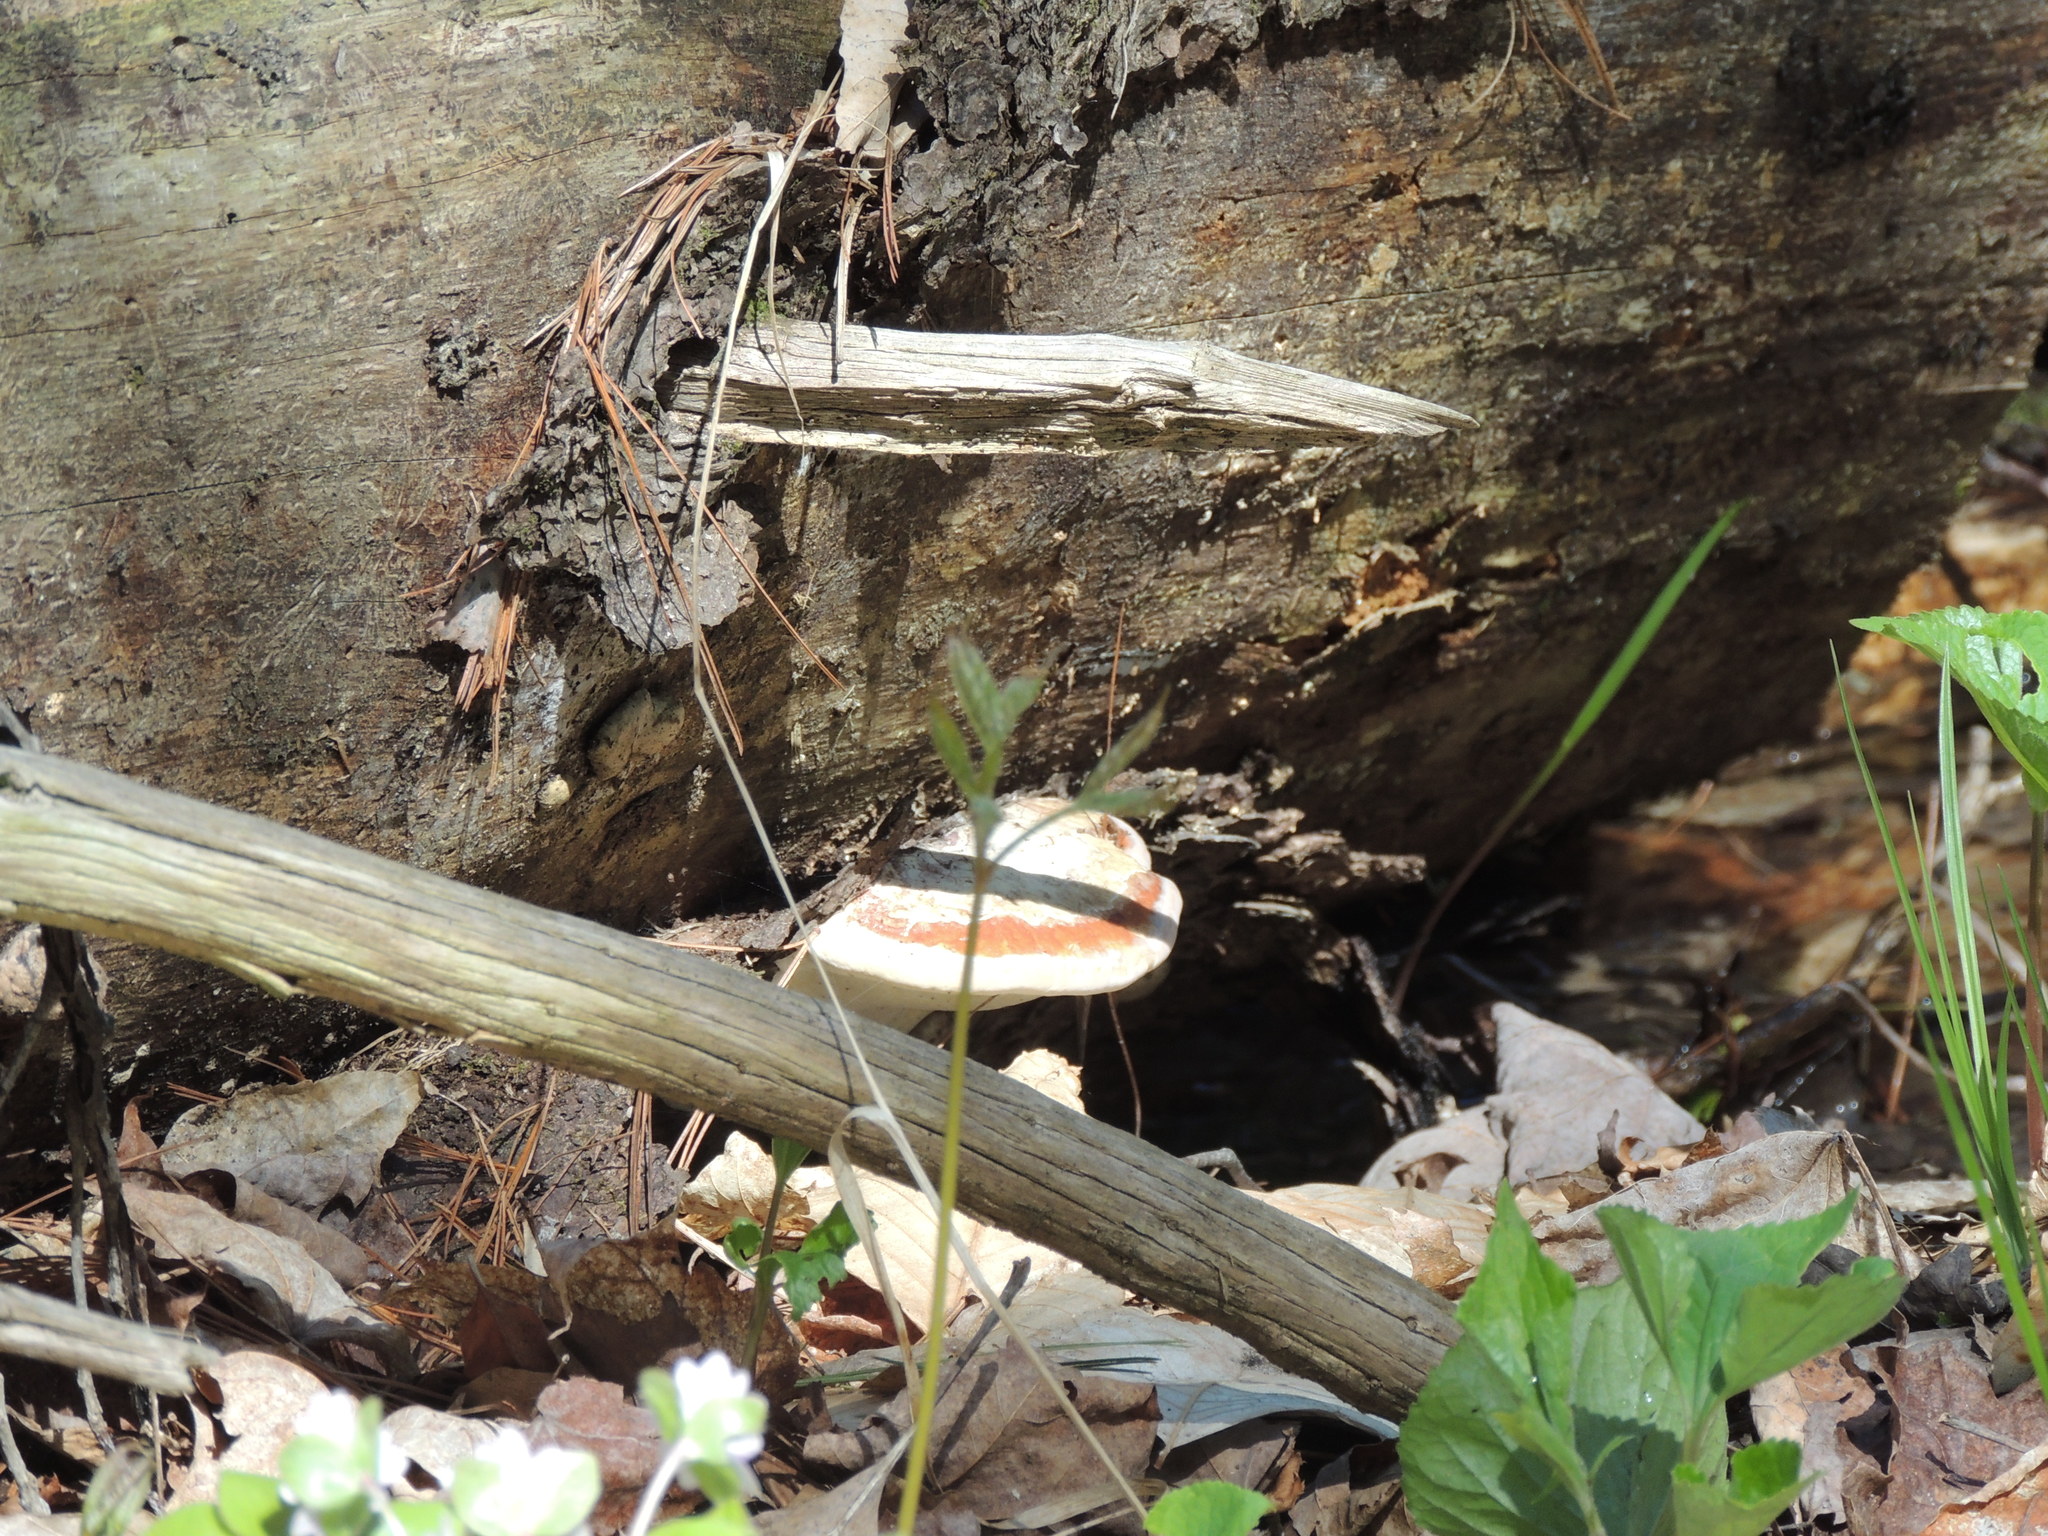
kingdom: Fungi
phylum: Basidiomycota
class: Agaricomycetes
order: Polyporales
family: Fomitopsidaceae
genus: Fomitopsis
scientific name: Fomitopsis mounceae
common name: Northern red belt
